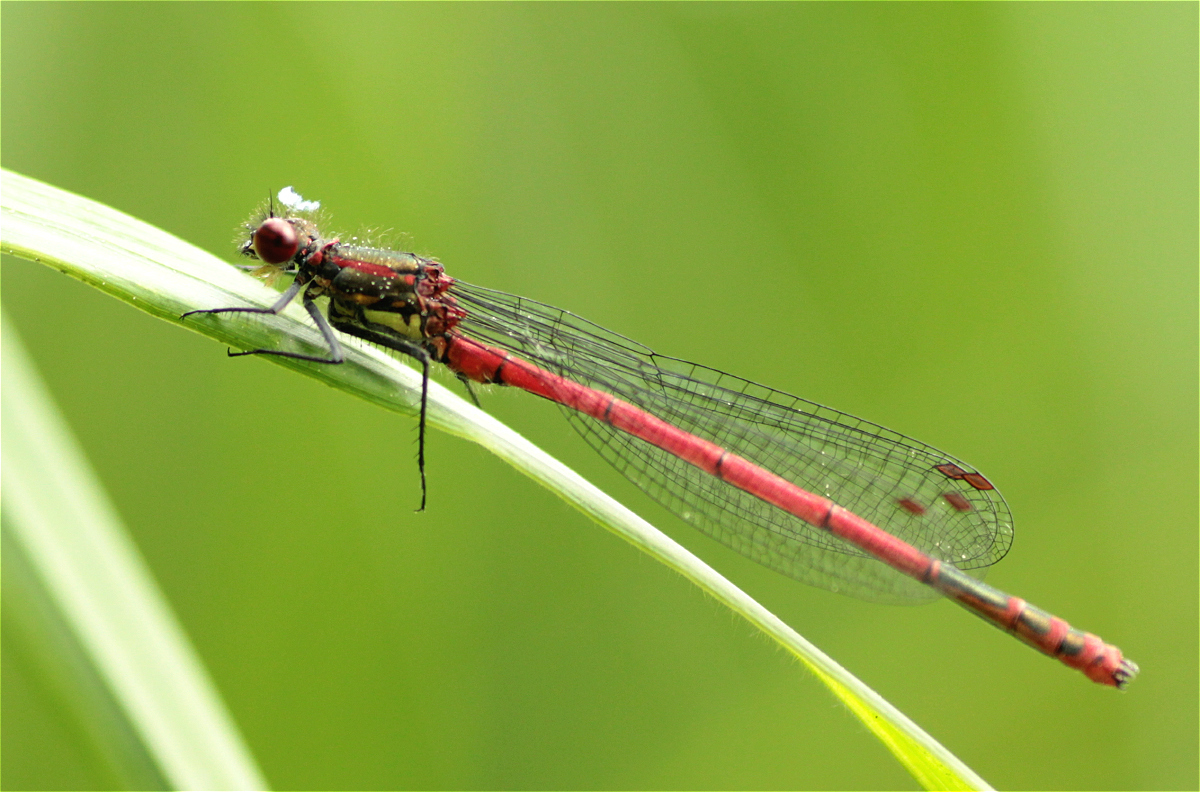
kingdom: Animalia
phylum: Arthropoda
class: Insecta
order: Odonata
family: Coenagrionidae
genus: Pyrrhosoma
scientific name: Pyrrhosoma nymphula
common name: Large red damsel
